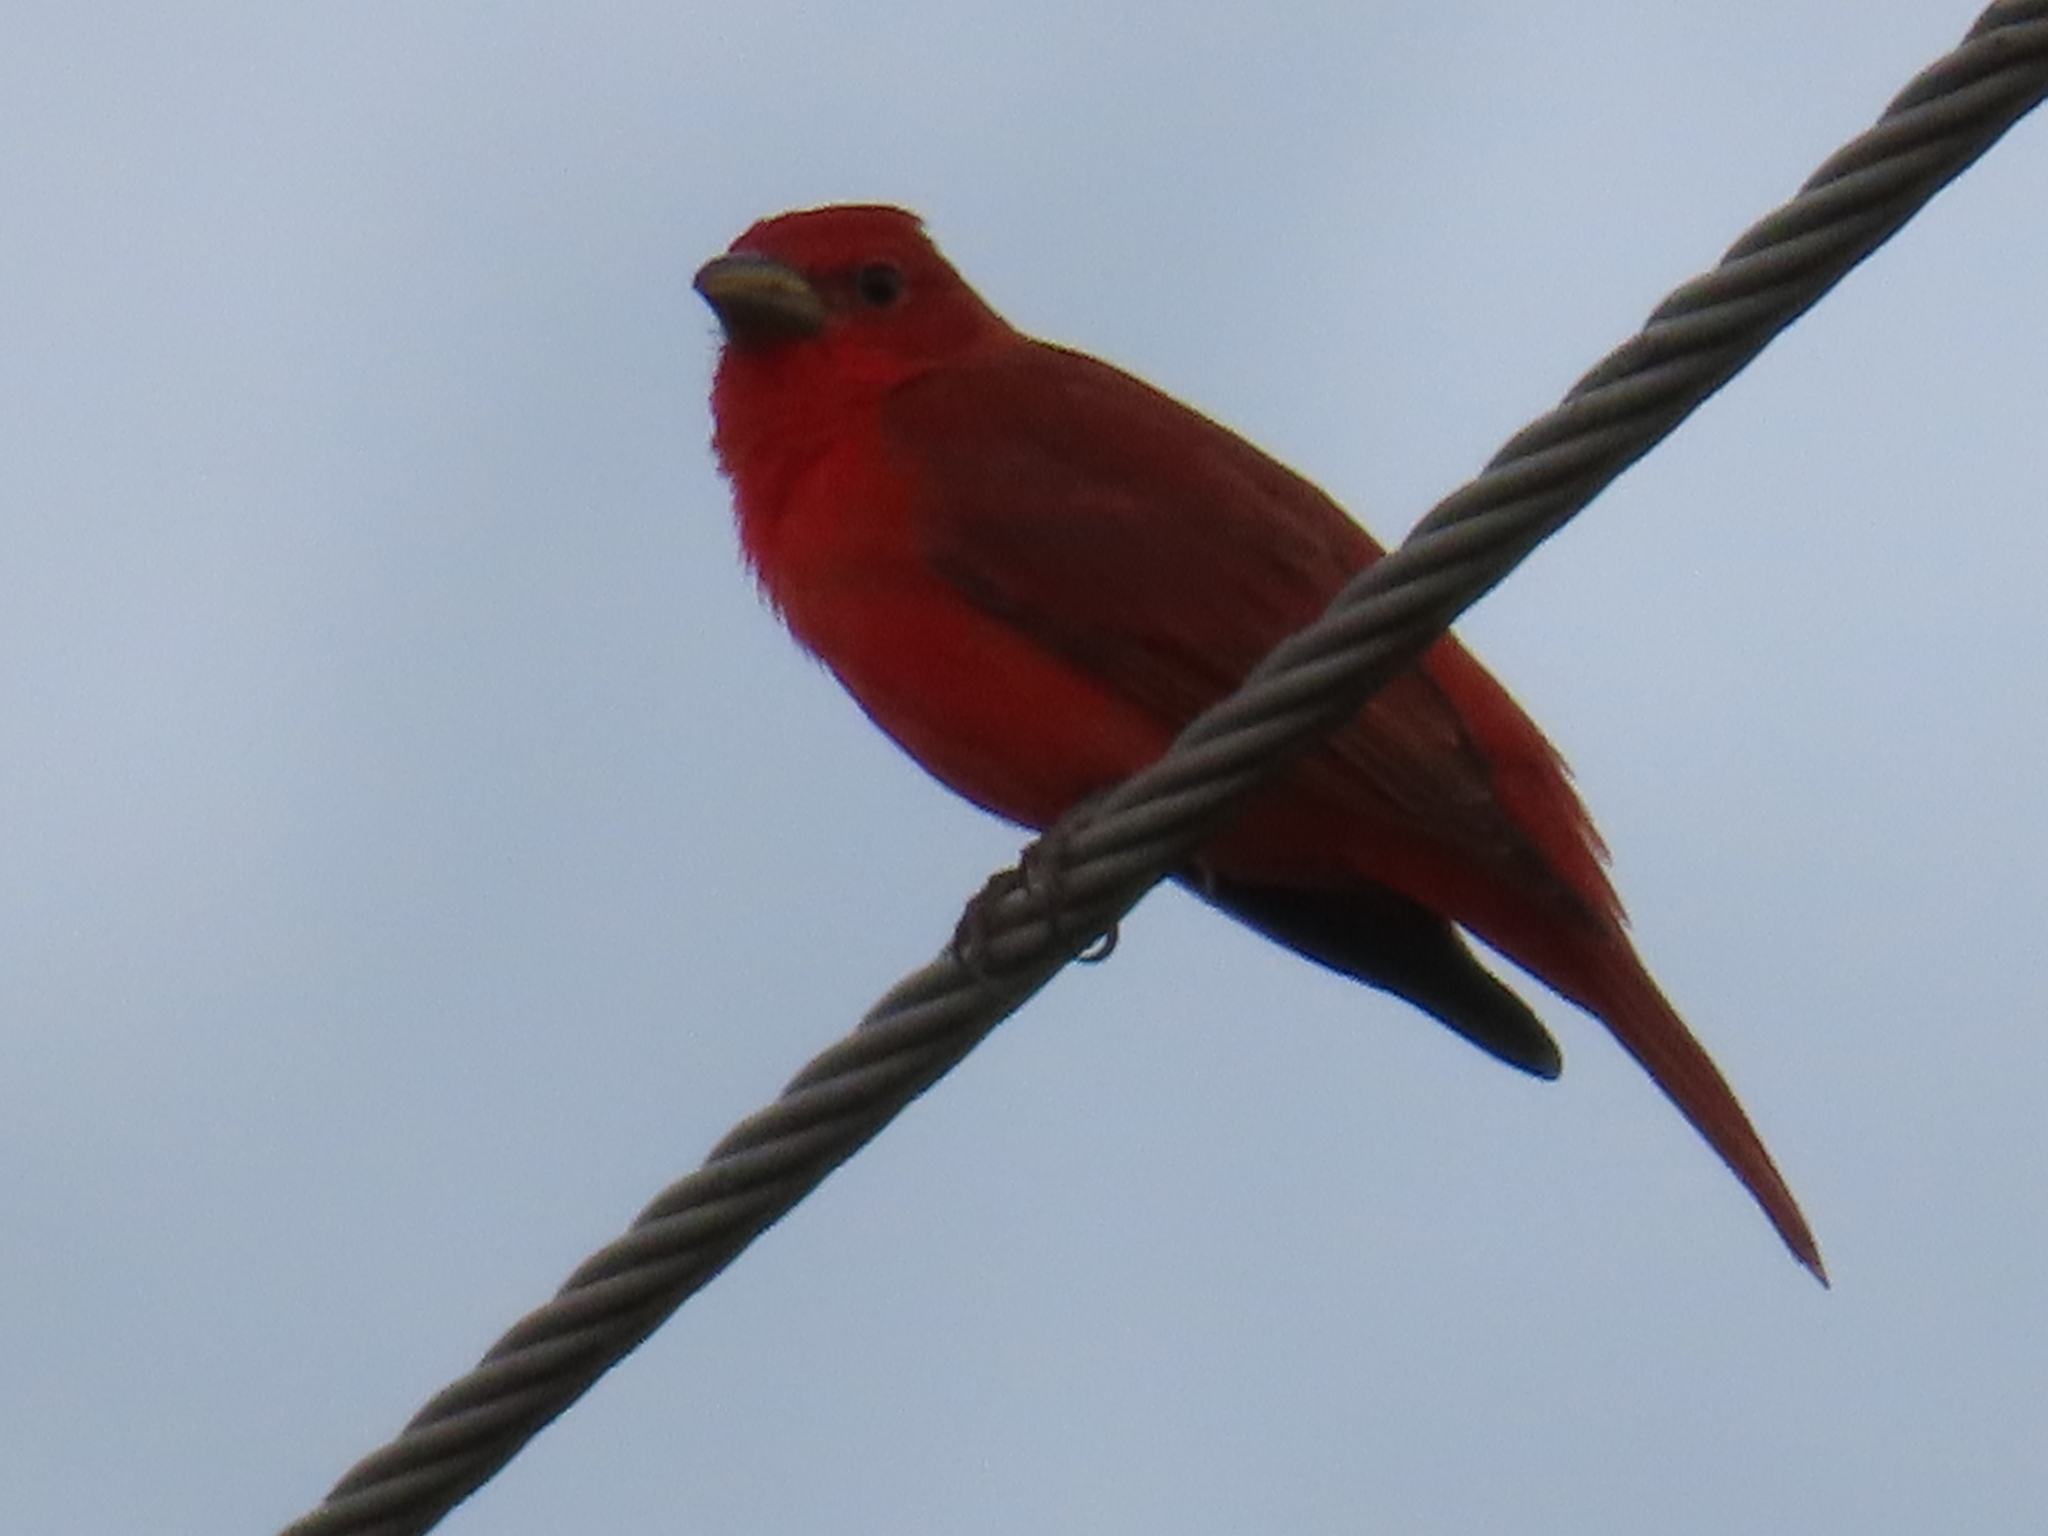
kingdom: Animalia
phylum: Chordata
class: Aves
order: Passeriformes
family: Cardinalidae
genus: Piranga
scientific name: Piranga rubra
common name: Summer tanager
